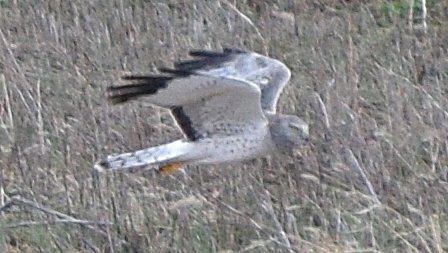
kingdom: Animalia
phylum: Chordata
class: Aves
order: Accipitriformes
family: Accipitridae
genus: Circus
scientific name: Circus cyaneus
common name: Hen harrier
